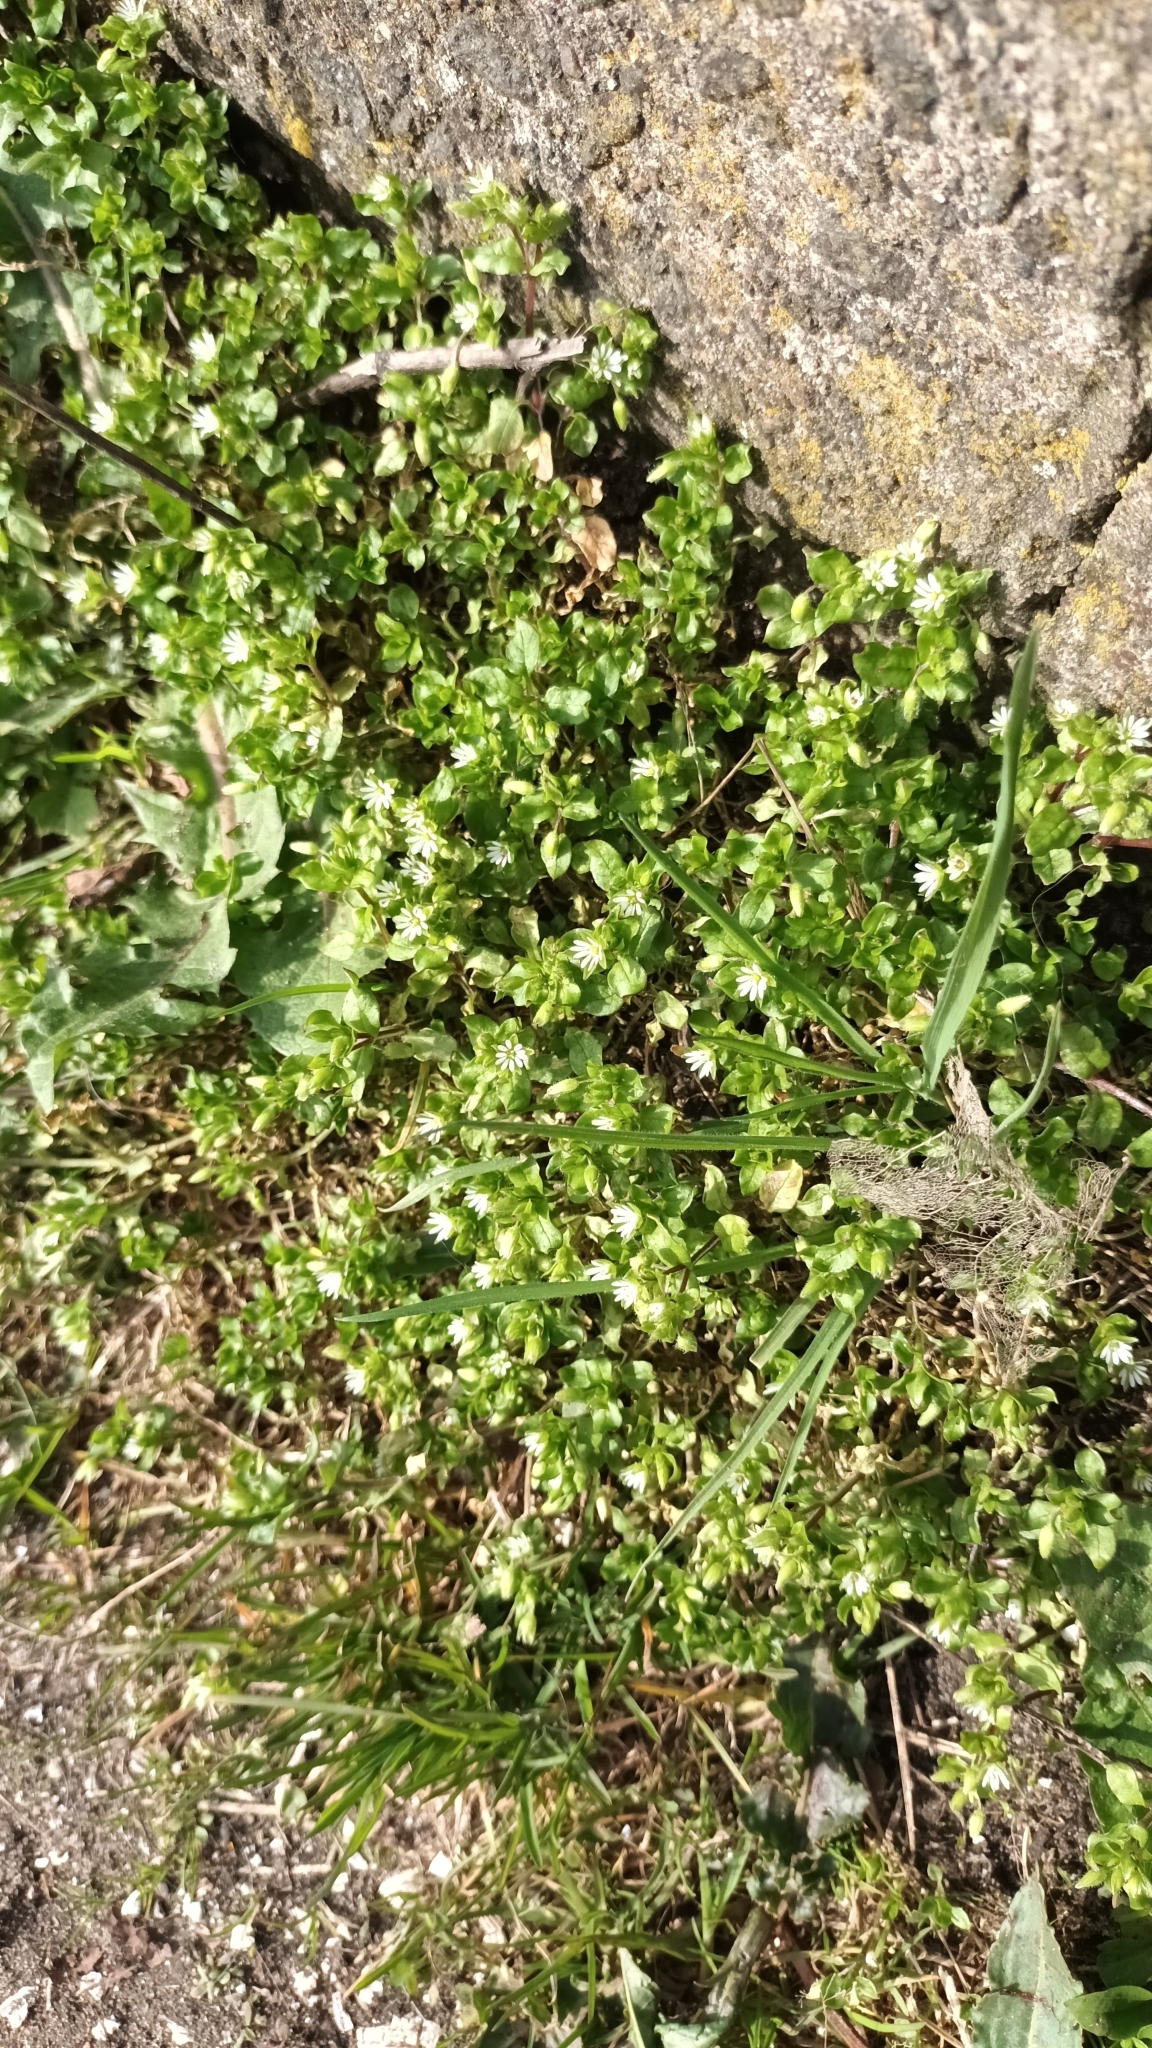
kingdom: Plantae
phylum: Tracheophyta
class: Magnoliopsida
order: Caryophyllales
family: Caryophyllaceae
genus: Stellaria
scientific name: Stellaria media
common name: Common chickweed
